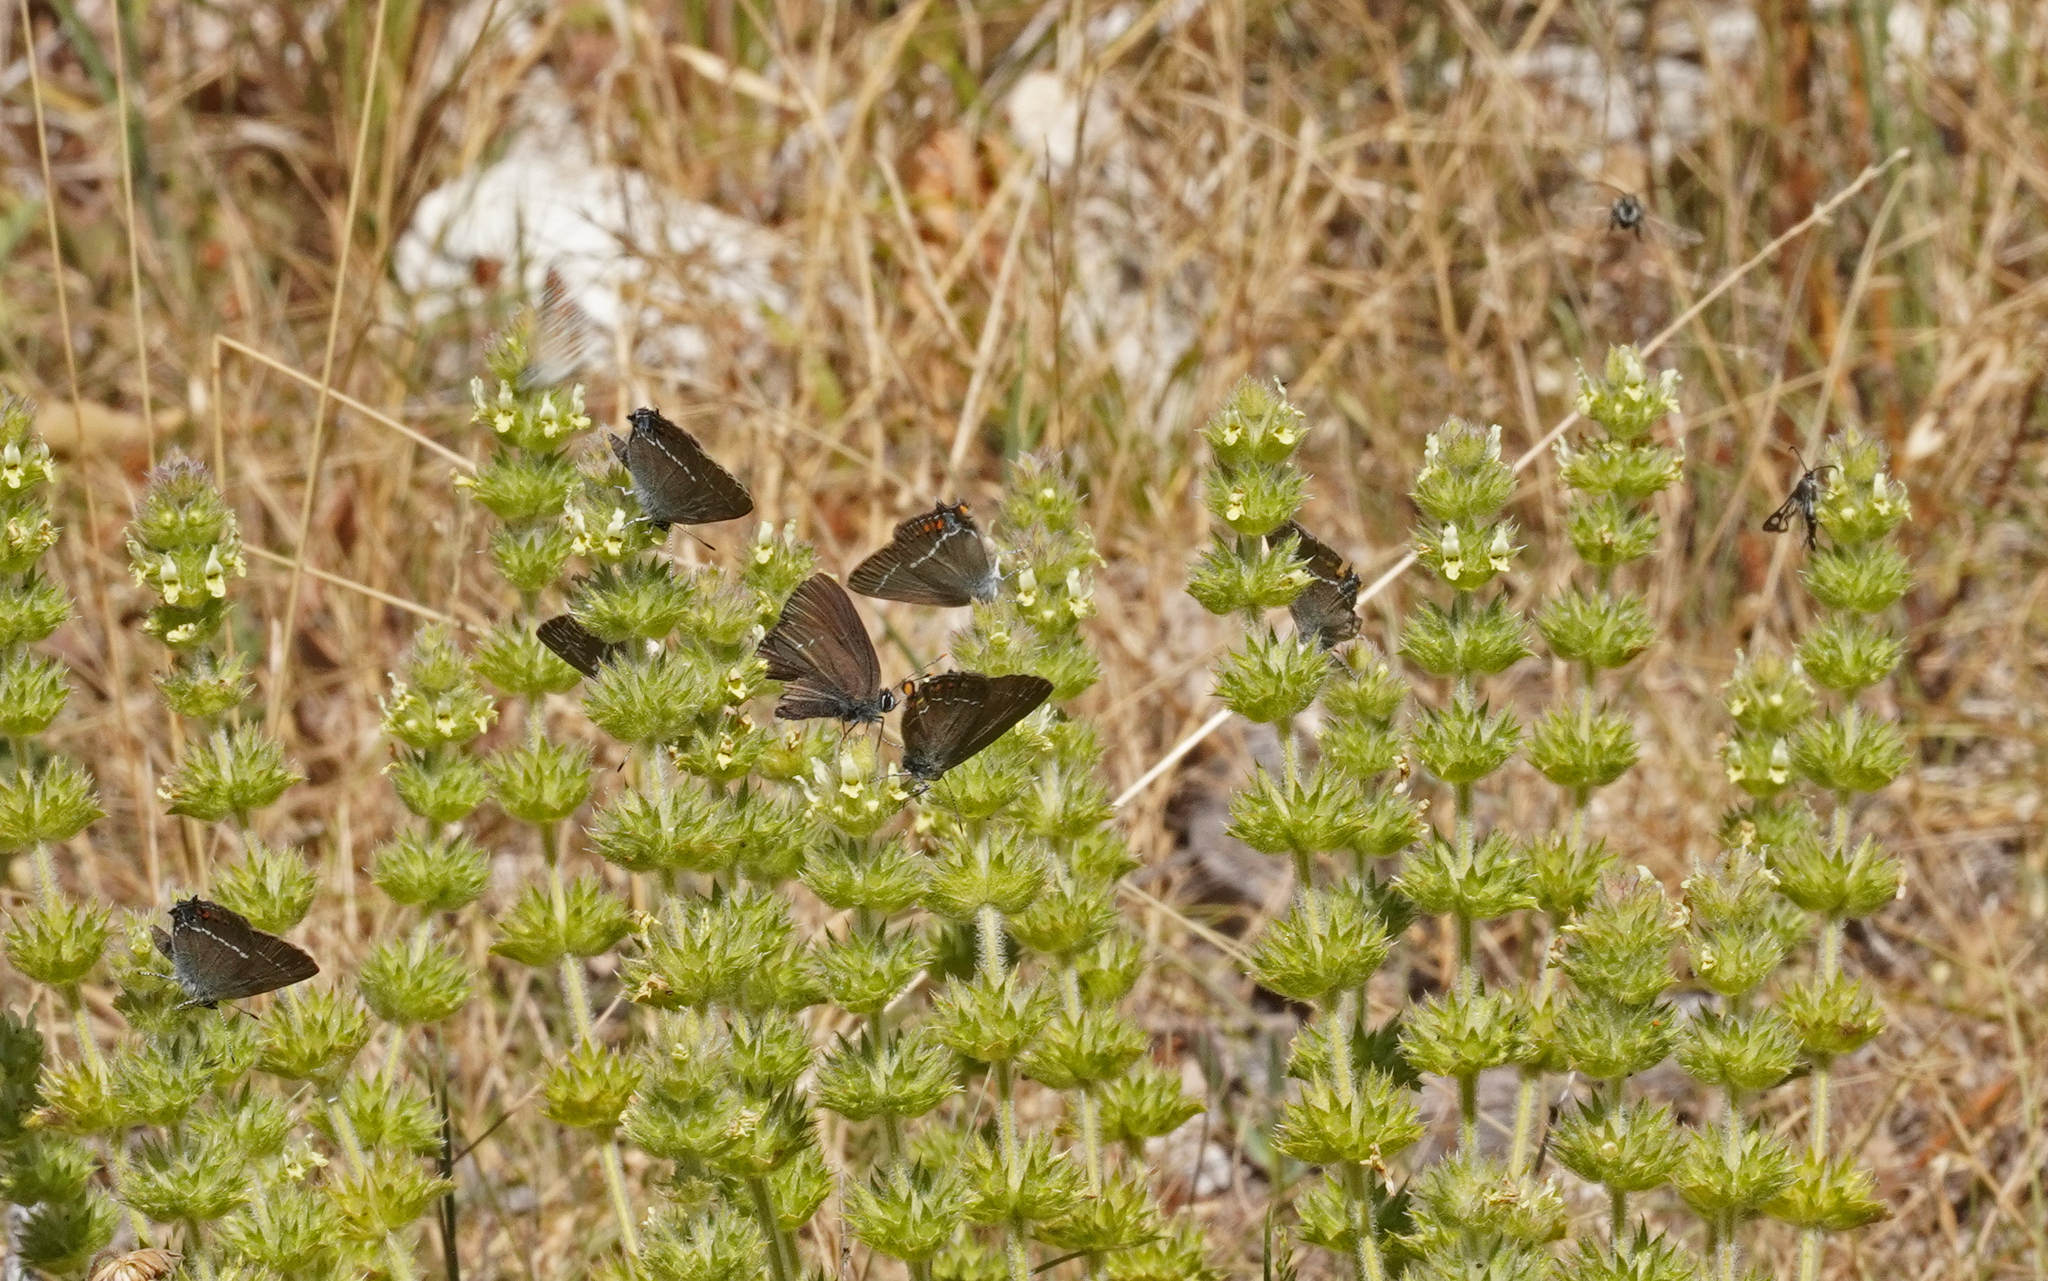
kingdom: Animalia
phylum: Arthropoda
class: Insecta
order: Lepidoptera
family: Lycaenidae
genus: Nordmannia
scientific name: Nordmannia ilicis
